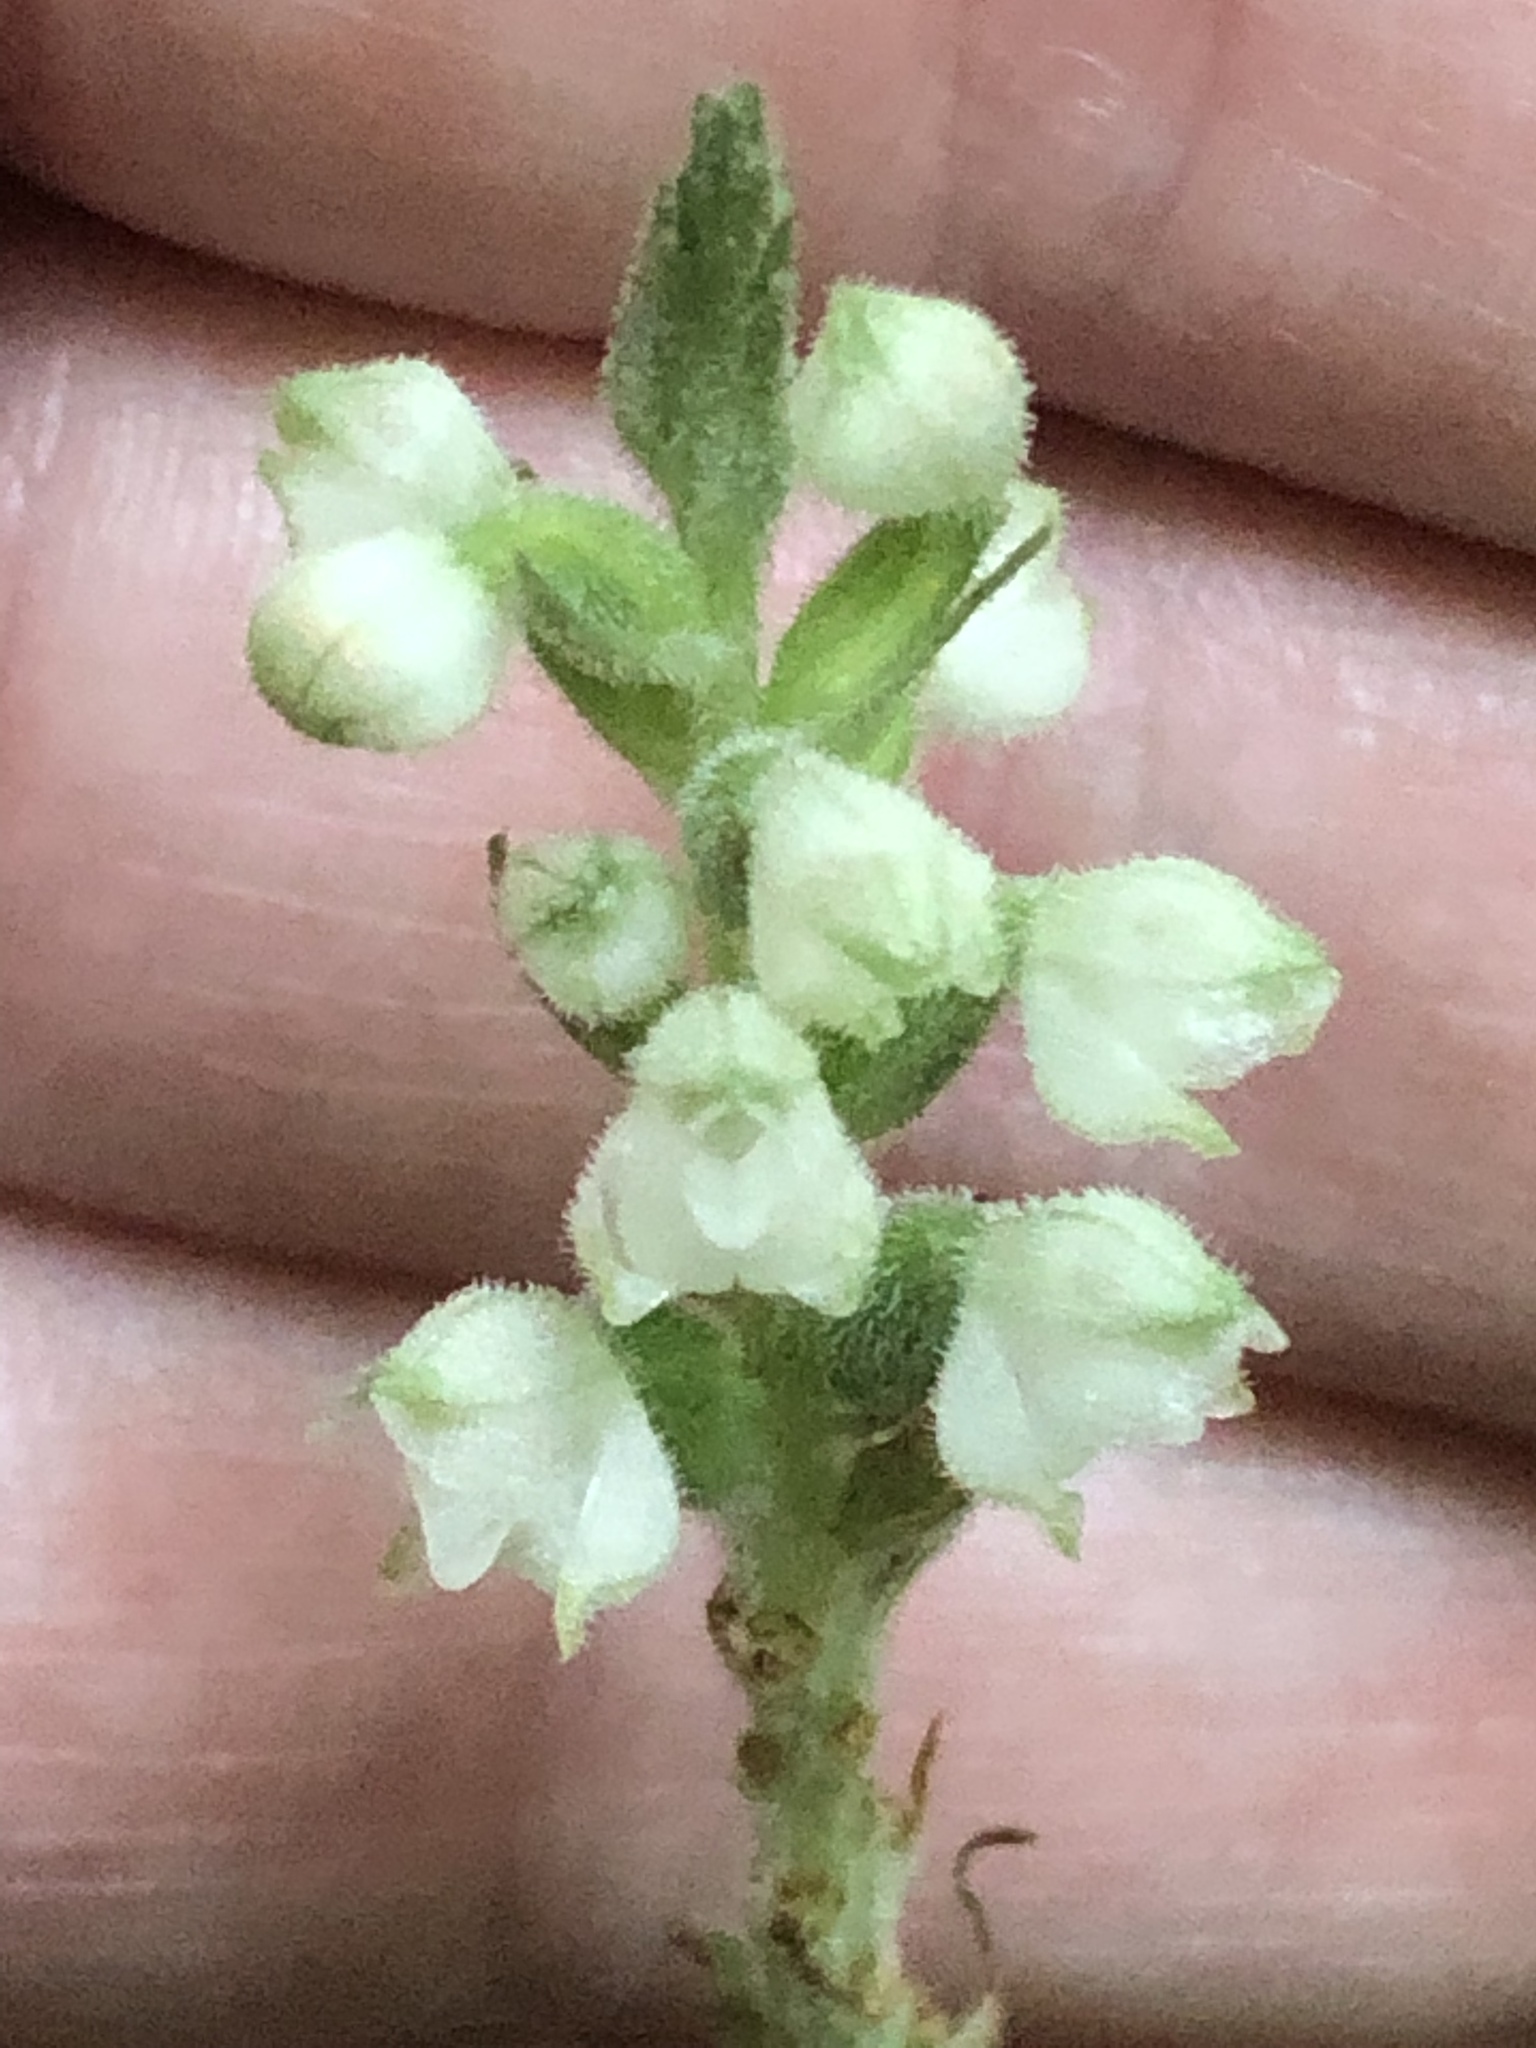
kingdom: Plantae
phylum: Tracheophyta
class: Liliopsida
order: Asparagales
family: Orchidaceae
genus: Goodyera
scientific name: Goodyera pubescens
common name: Downy rattlesnake-plantain
